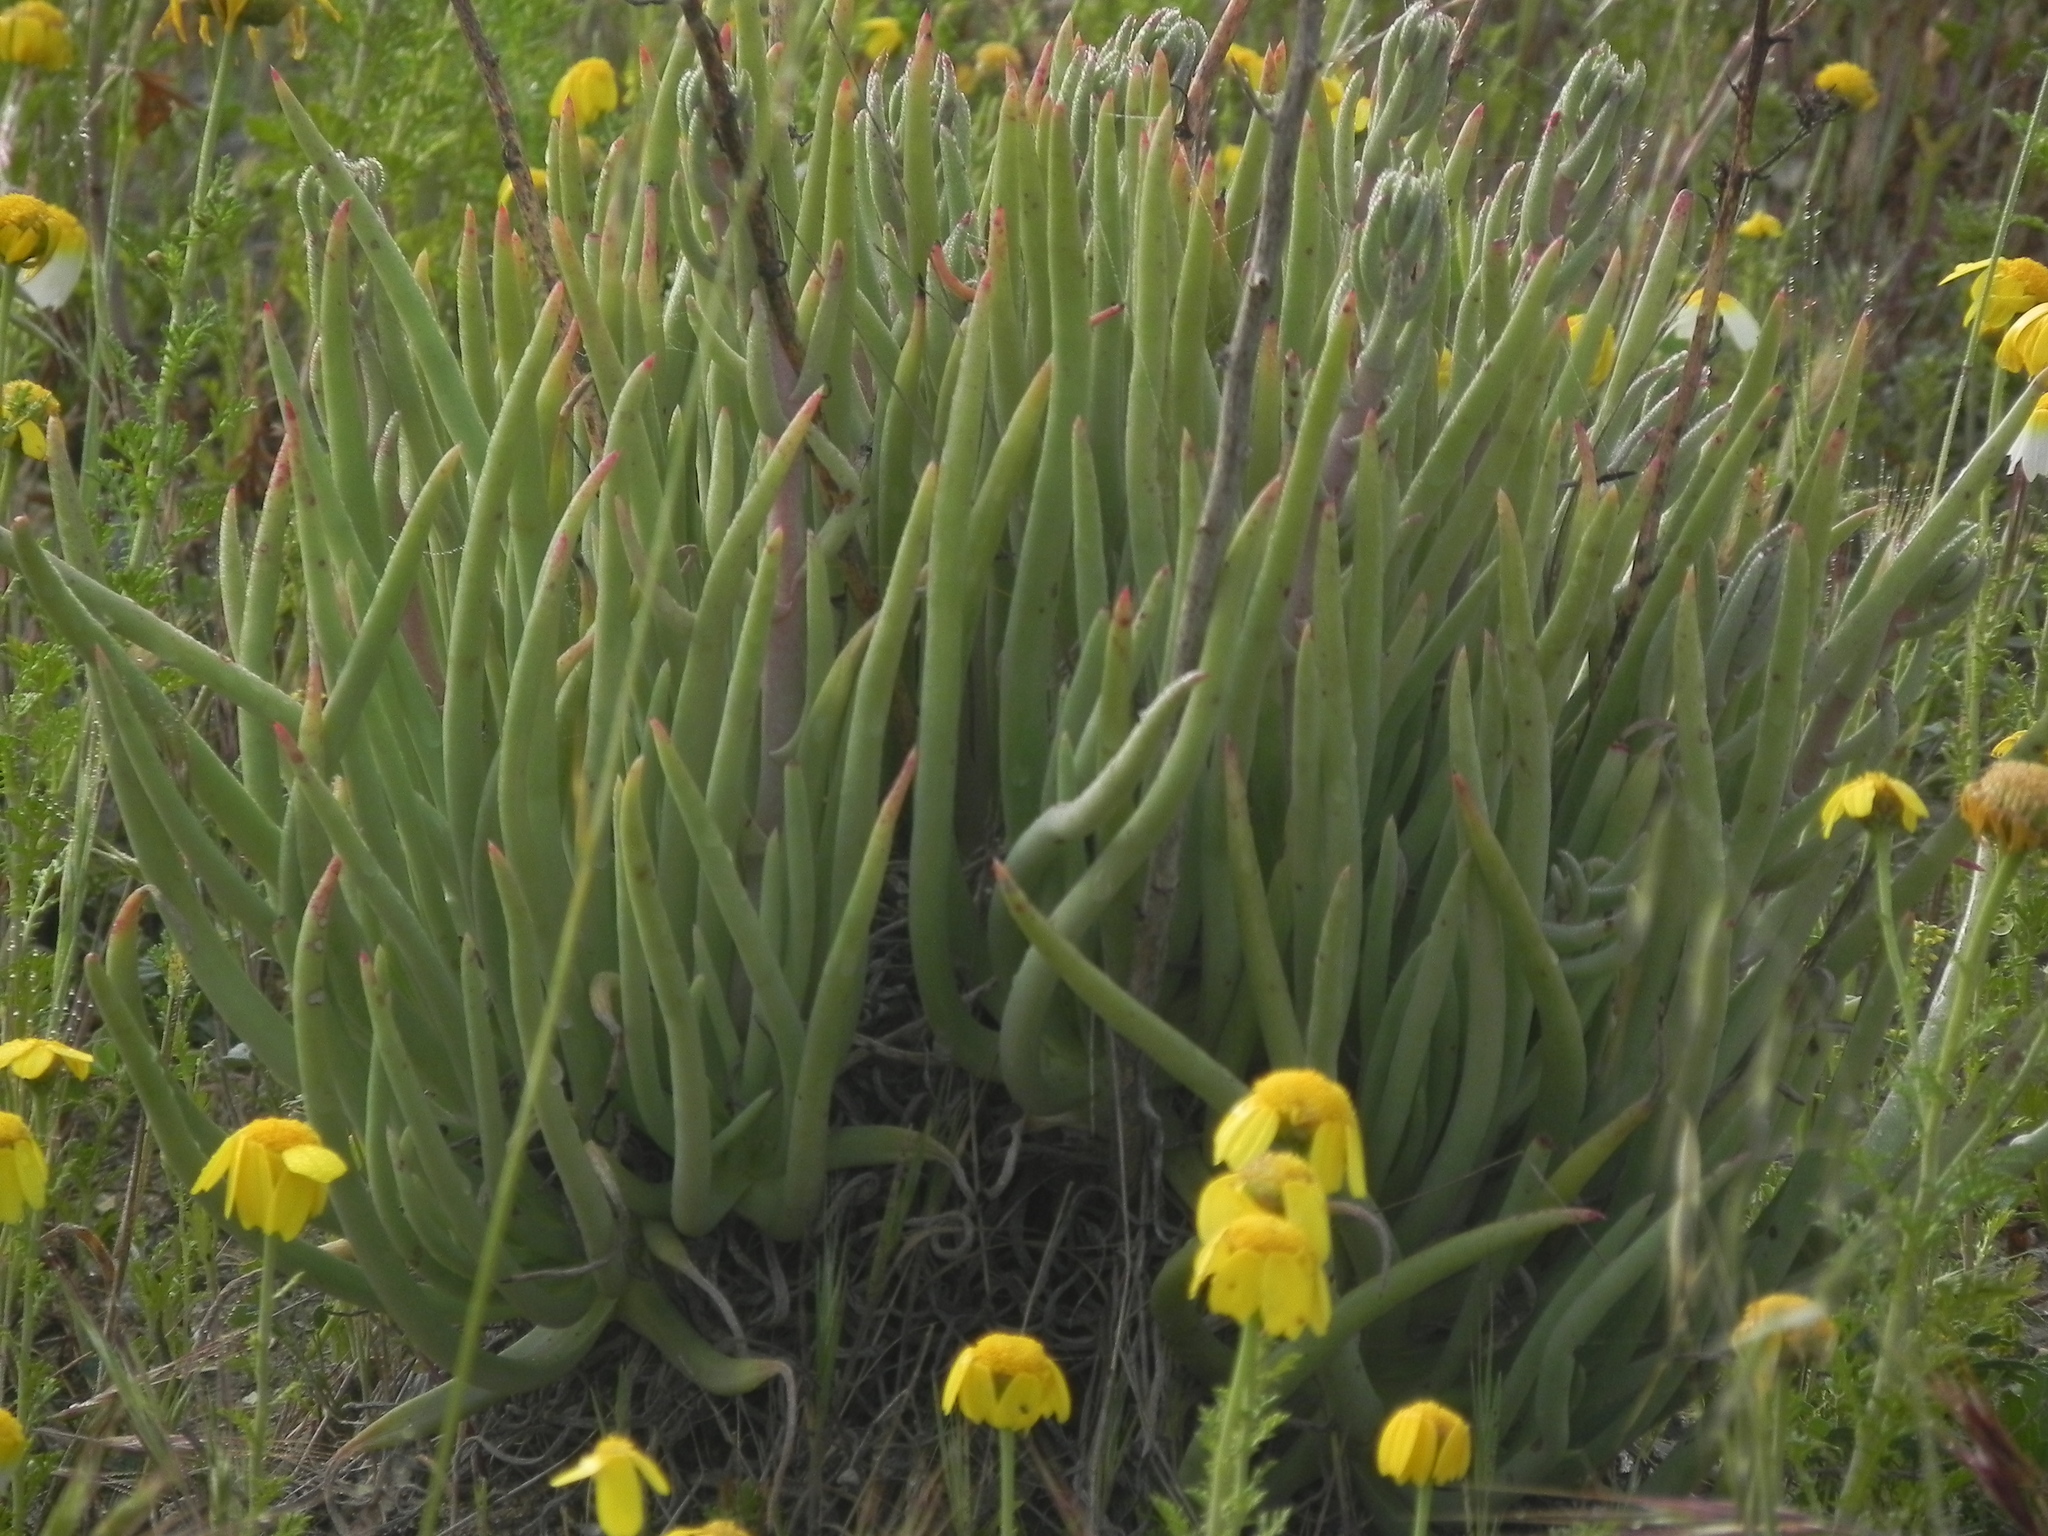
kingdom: Plantae
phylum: Tracheophyta
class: Magnoliopsida
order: Saxifragales
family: Crassulaceae
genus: Dudleya
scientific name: Dudleya edulis
